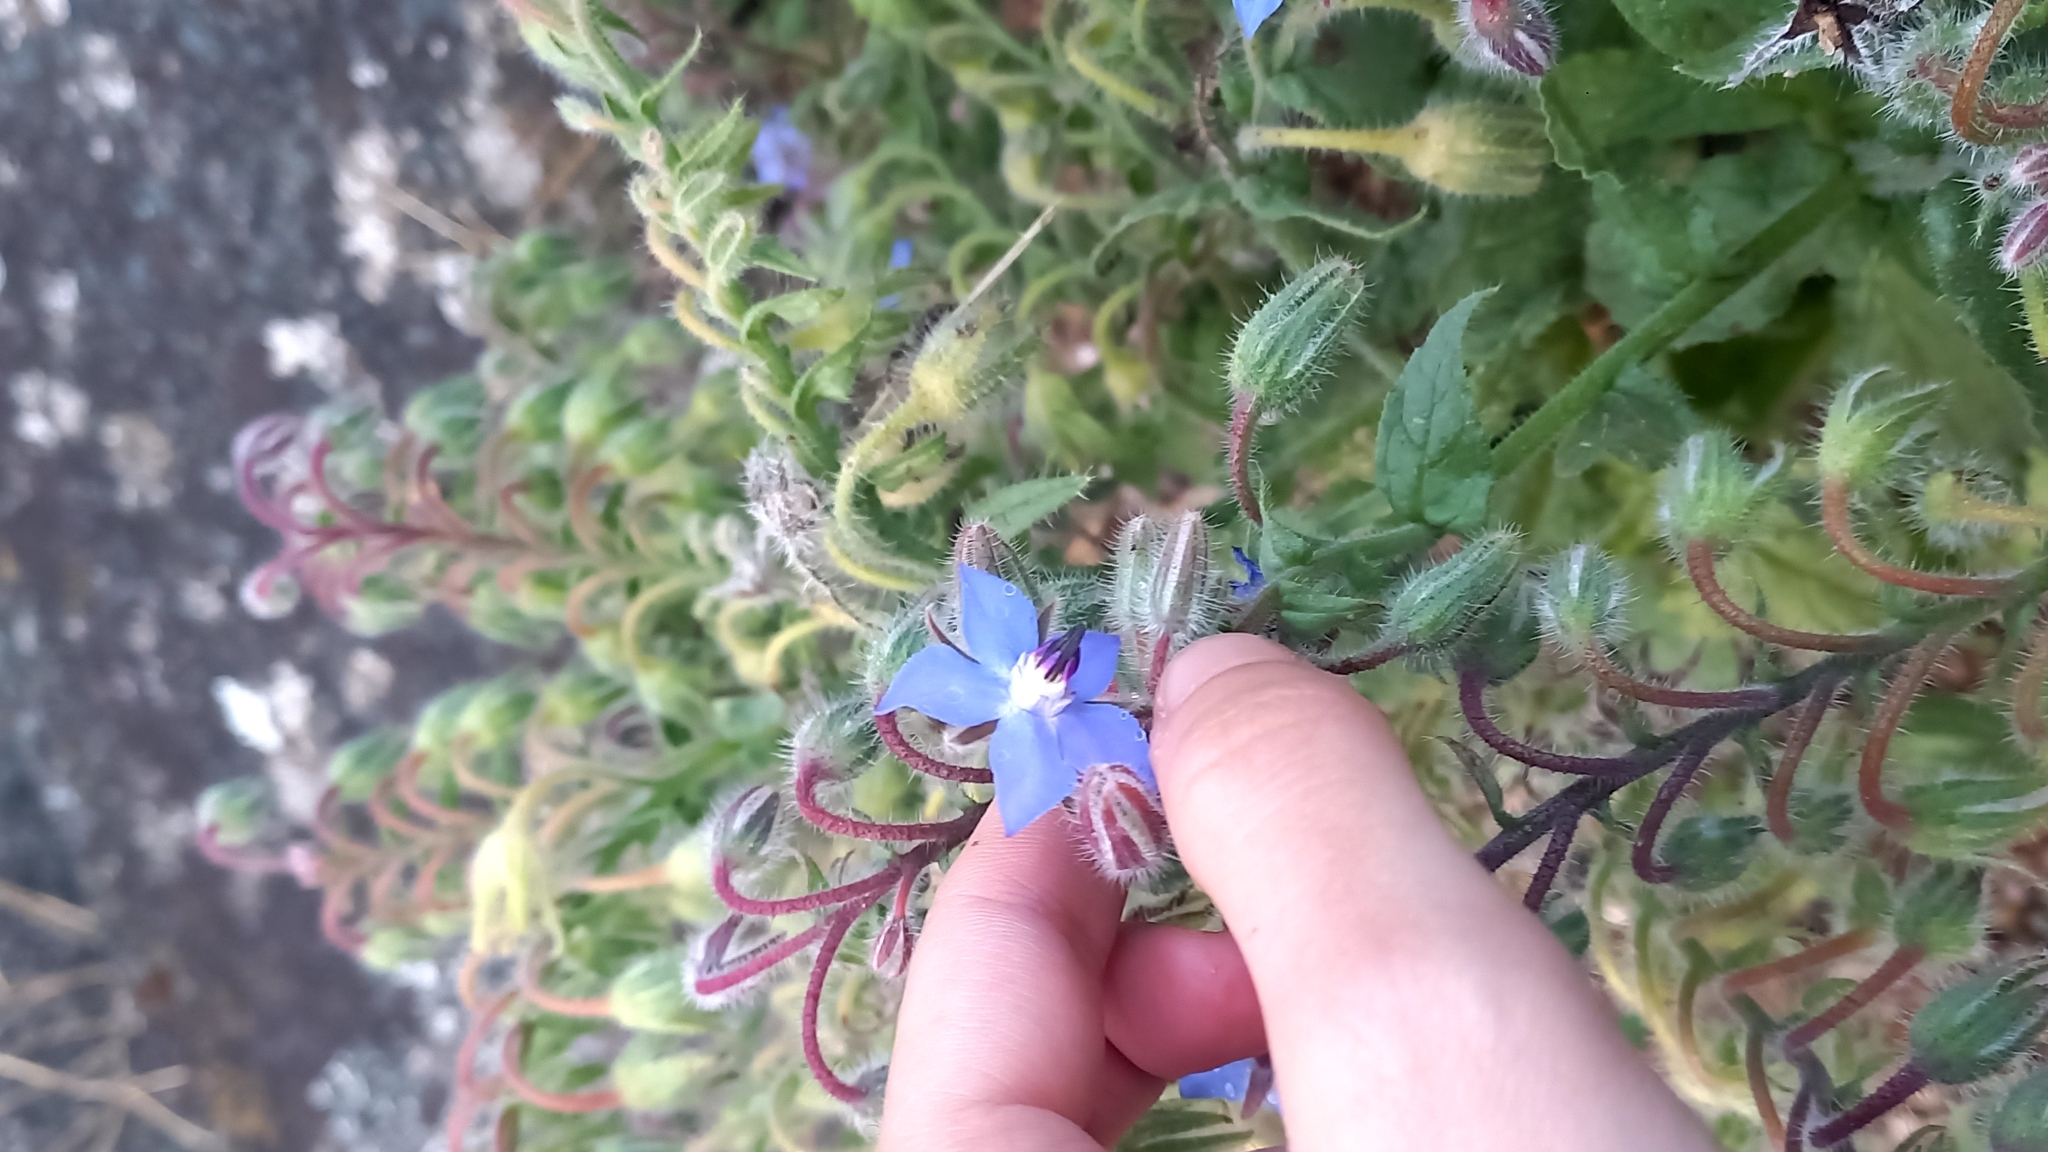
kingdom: Plantae
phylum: Tracheophyta
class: Magnoliopsida
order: Boraginales
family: Boraginaceae
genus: Borago
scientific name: Borago officinalis
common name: Borage
